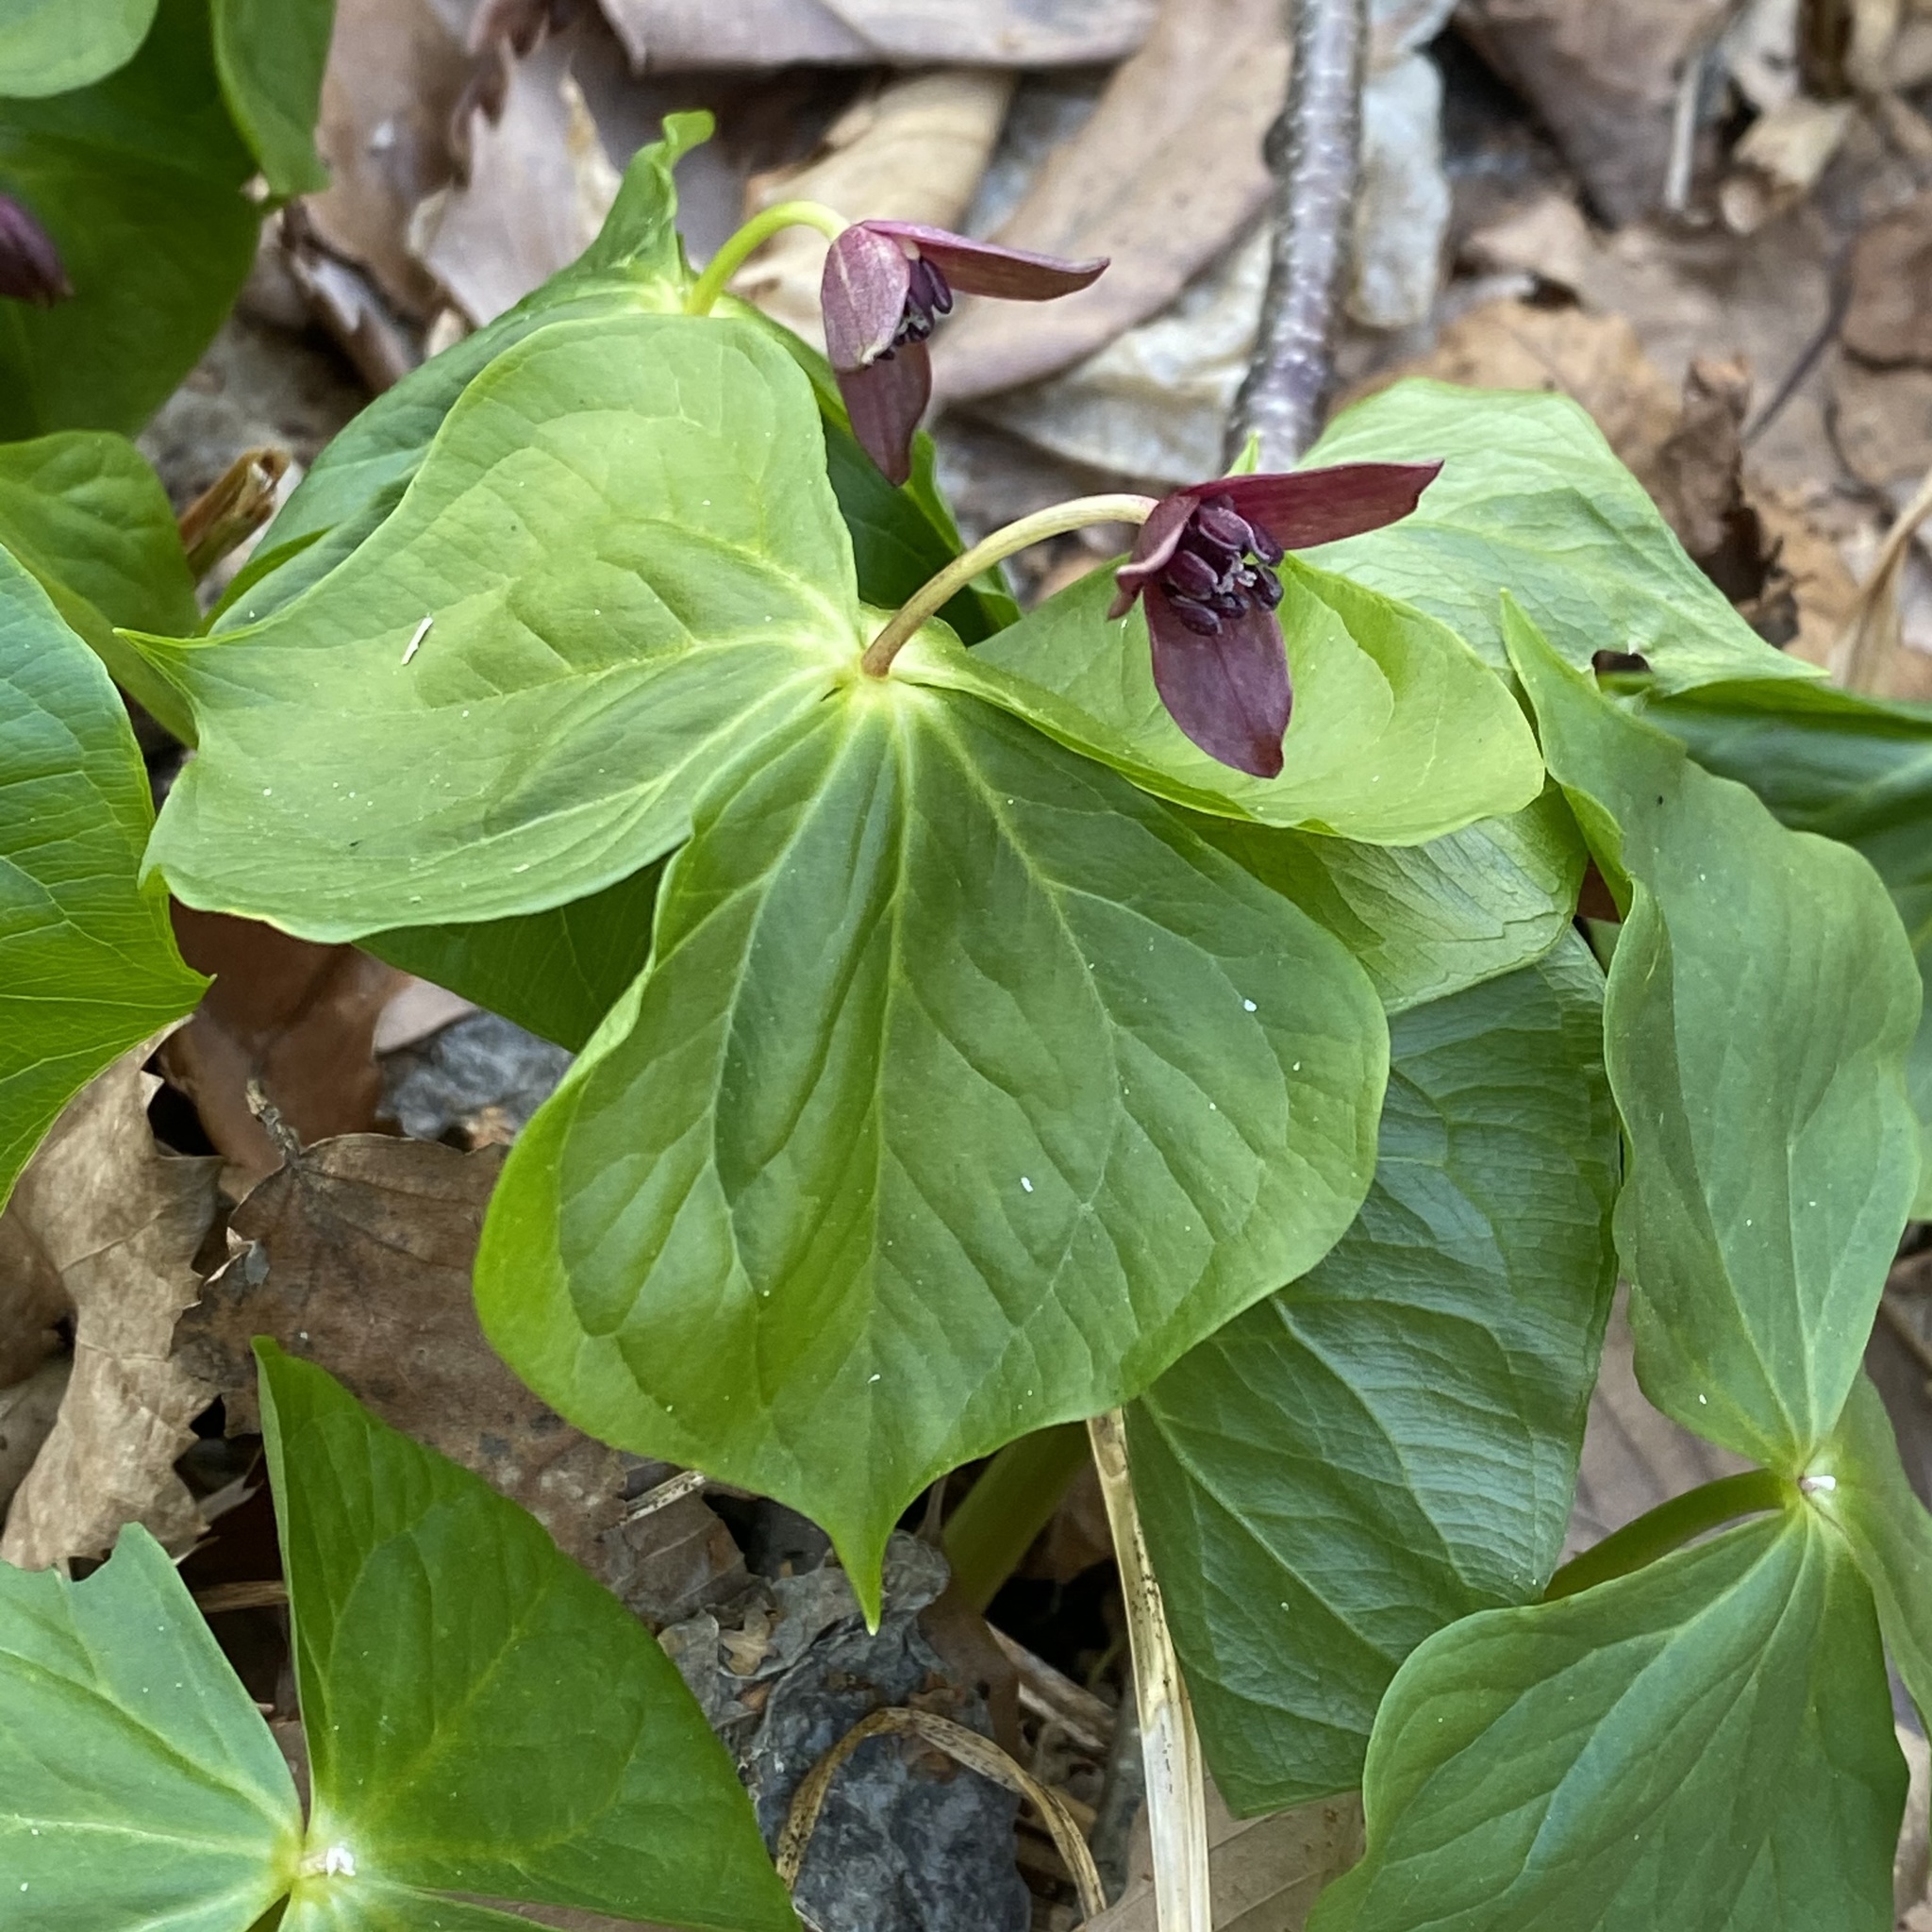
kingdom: Plantae
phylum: Tracheophyta
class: Liliopsida
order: Liliales
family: Melanthiaceae
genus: Trillium
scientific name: Trillium apetalon
